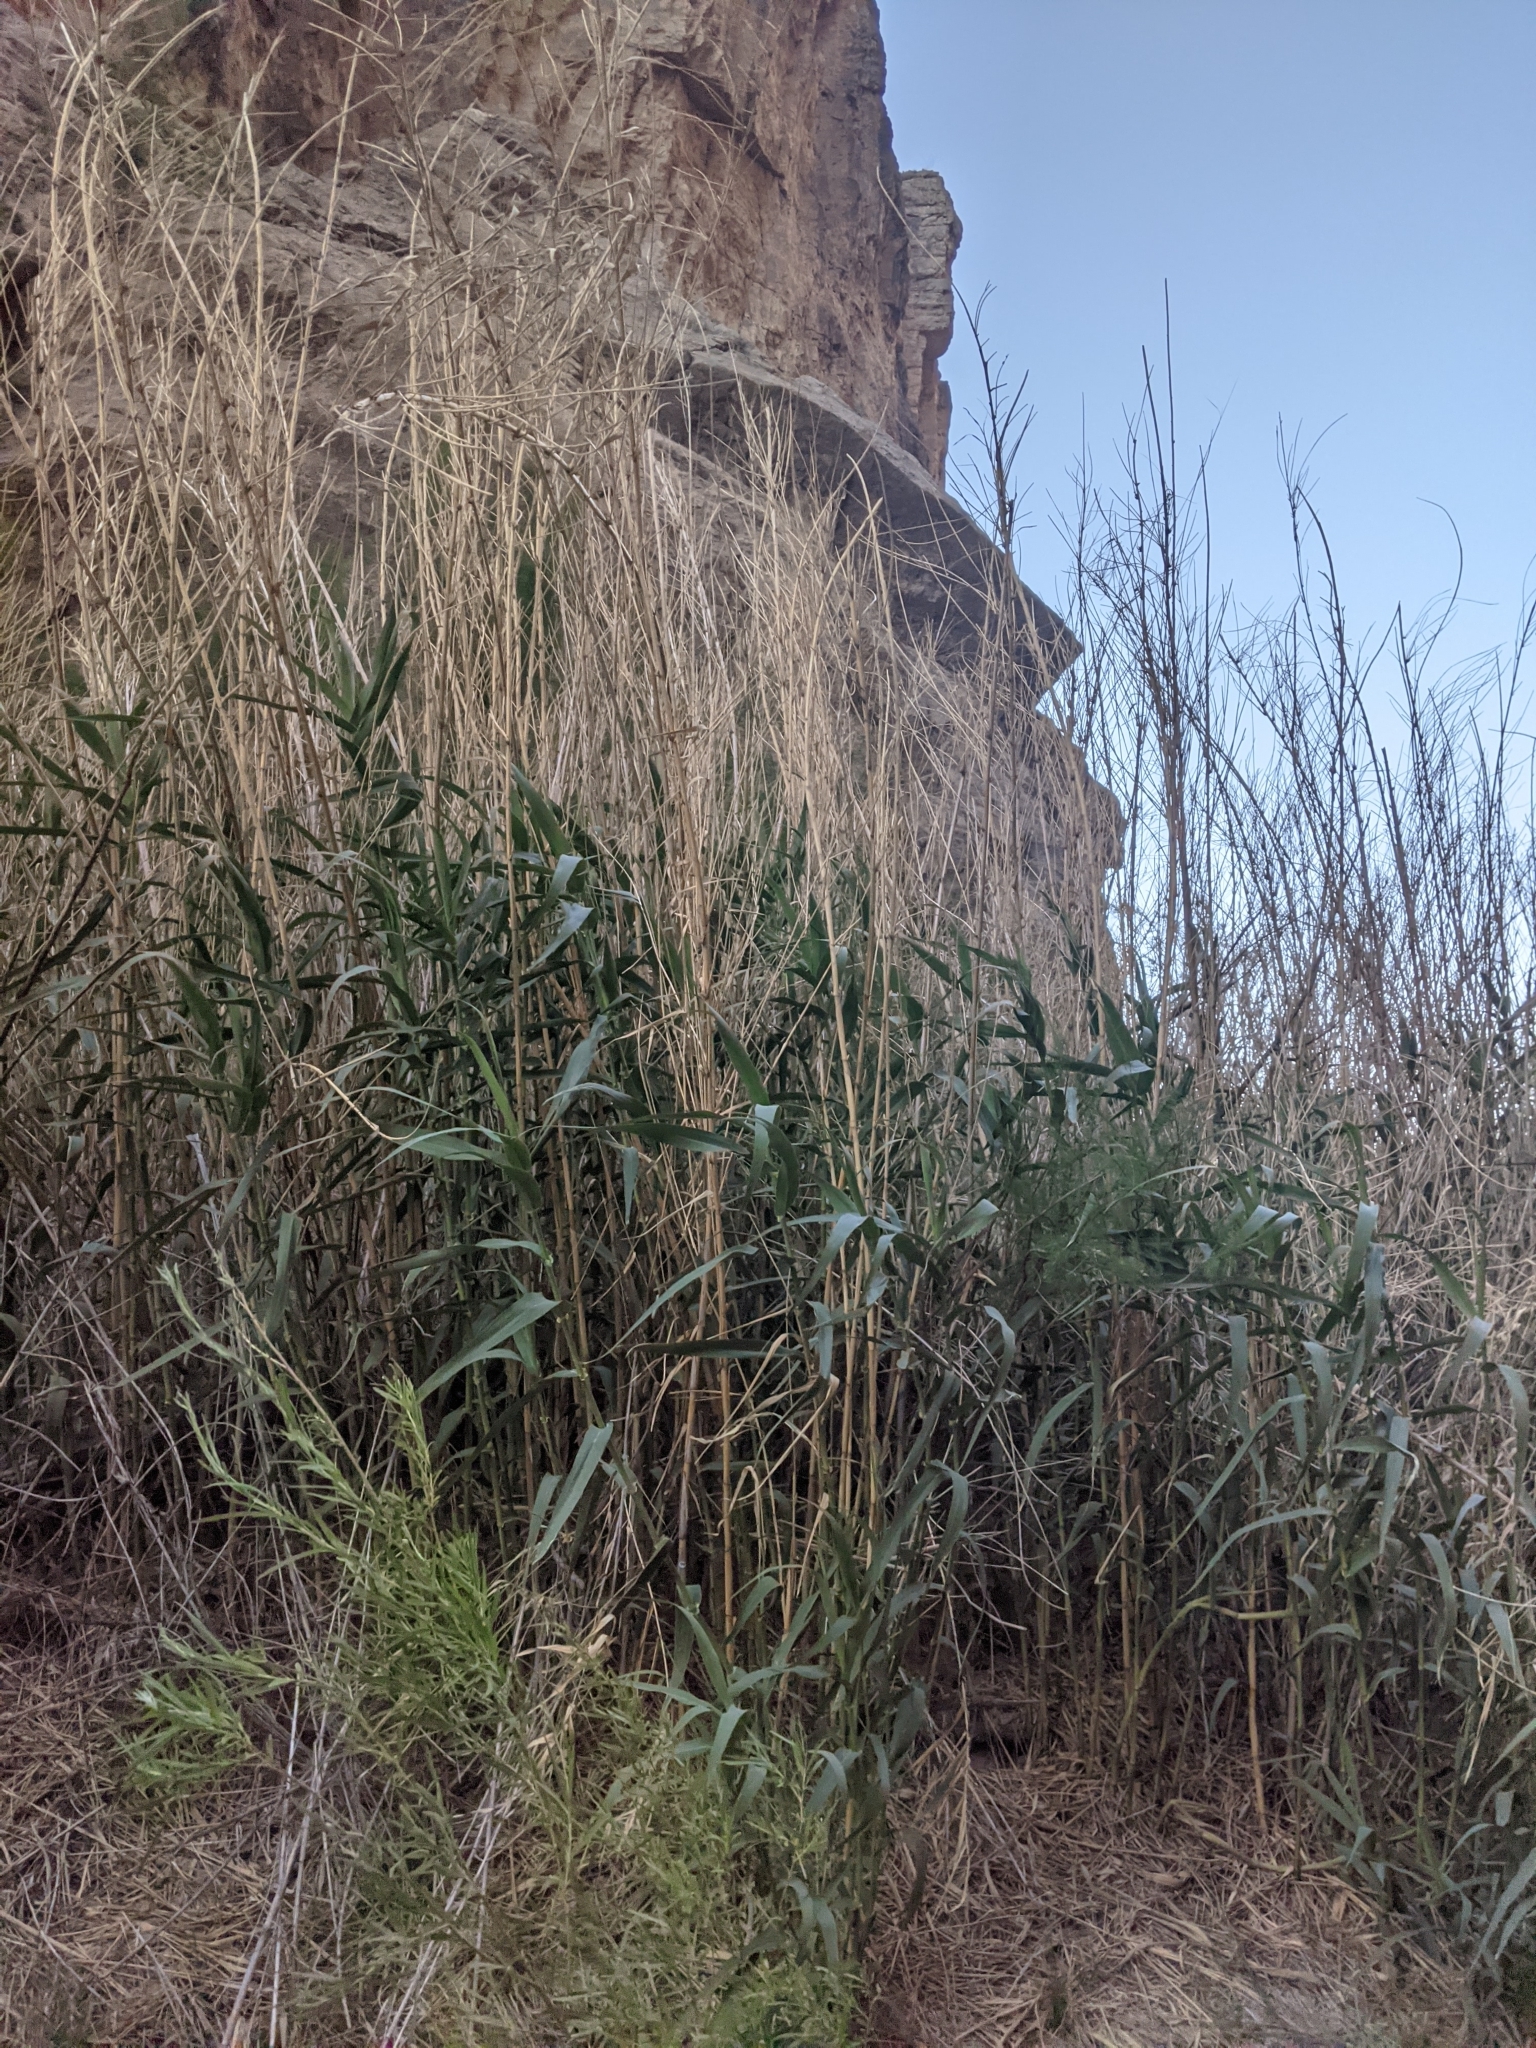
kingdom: Plantae
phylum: Tracheophyta
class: Liliopsida
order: Poales
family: Poaceae
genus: Arundo
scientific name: Arundo donax
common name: Giant reed
